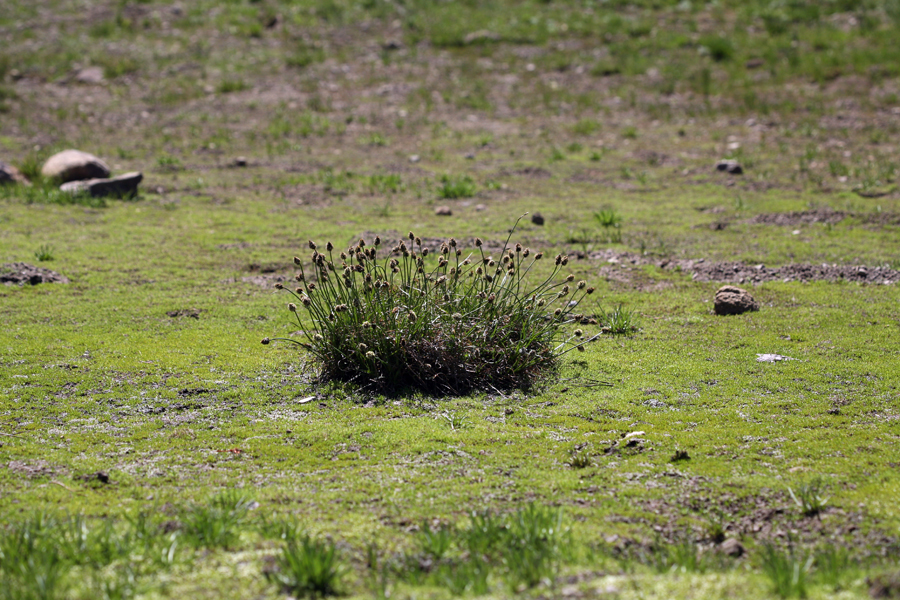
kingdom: Plantae
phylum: Tracheophyta
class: Liliopsida
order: Poales
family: Cyperaceae
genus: Carex
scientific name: Carex vernacula
